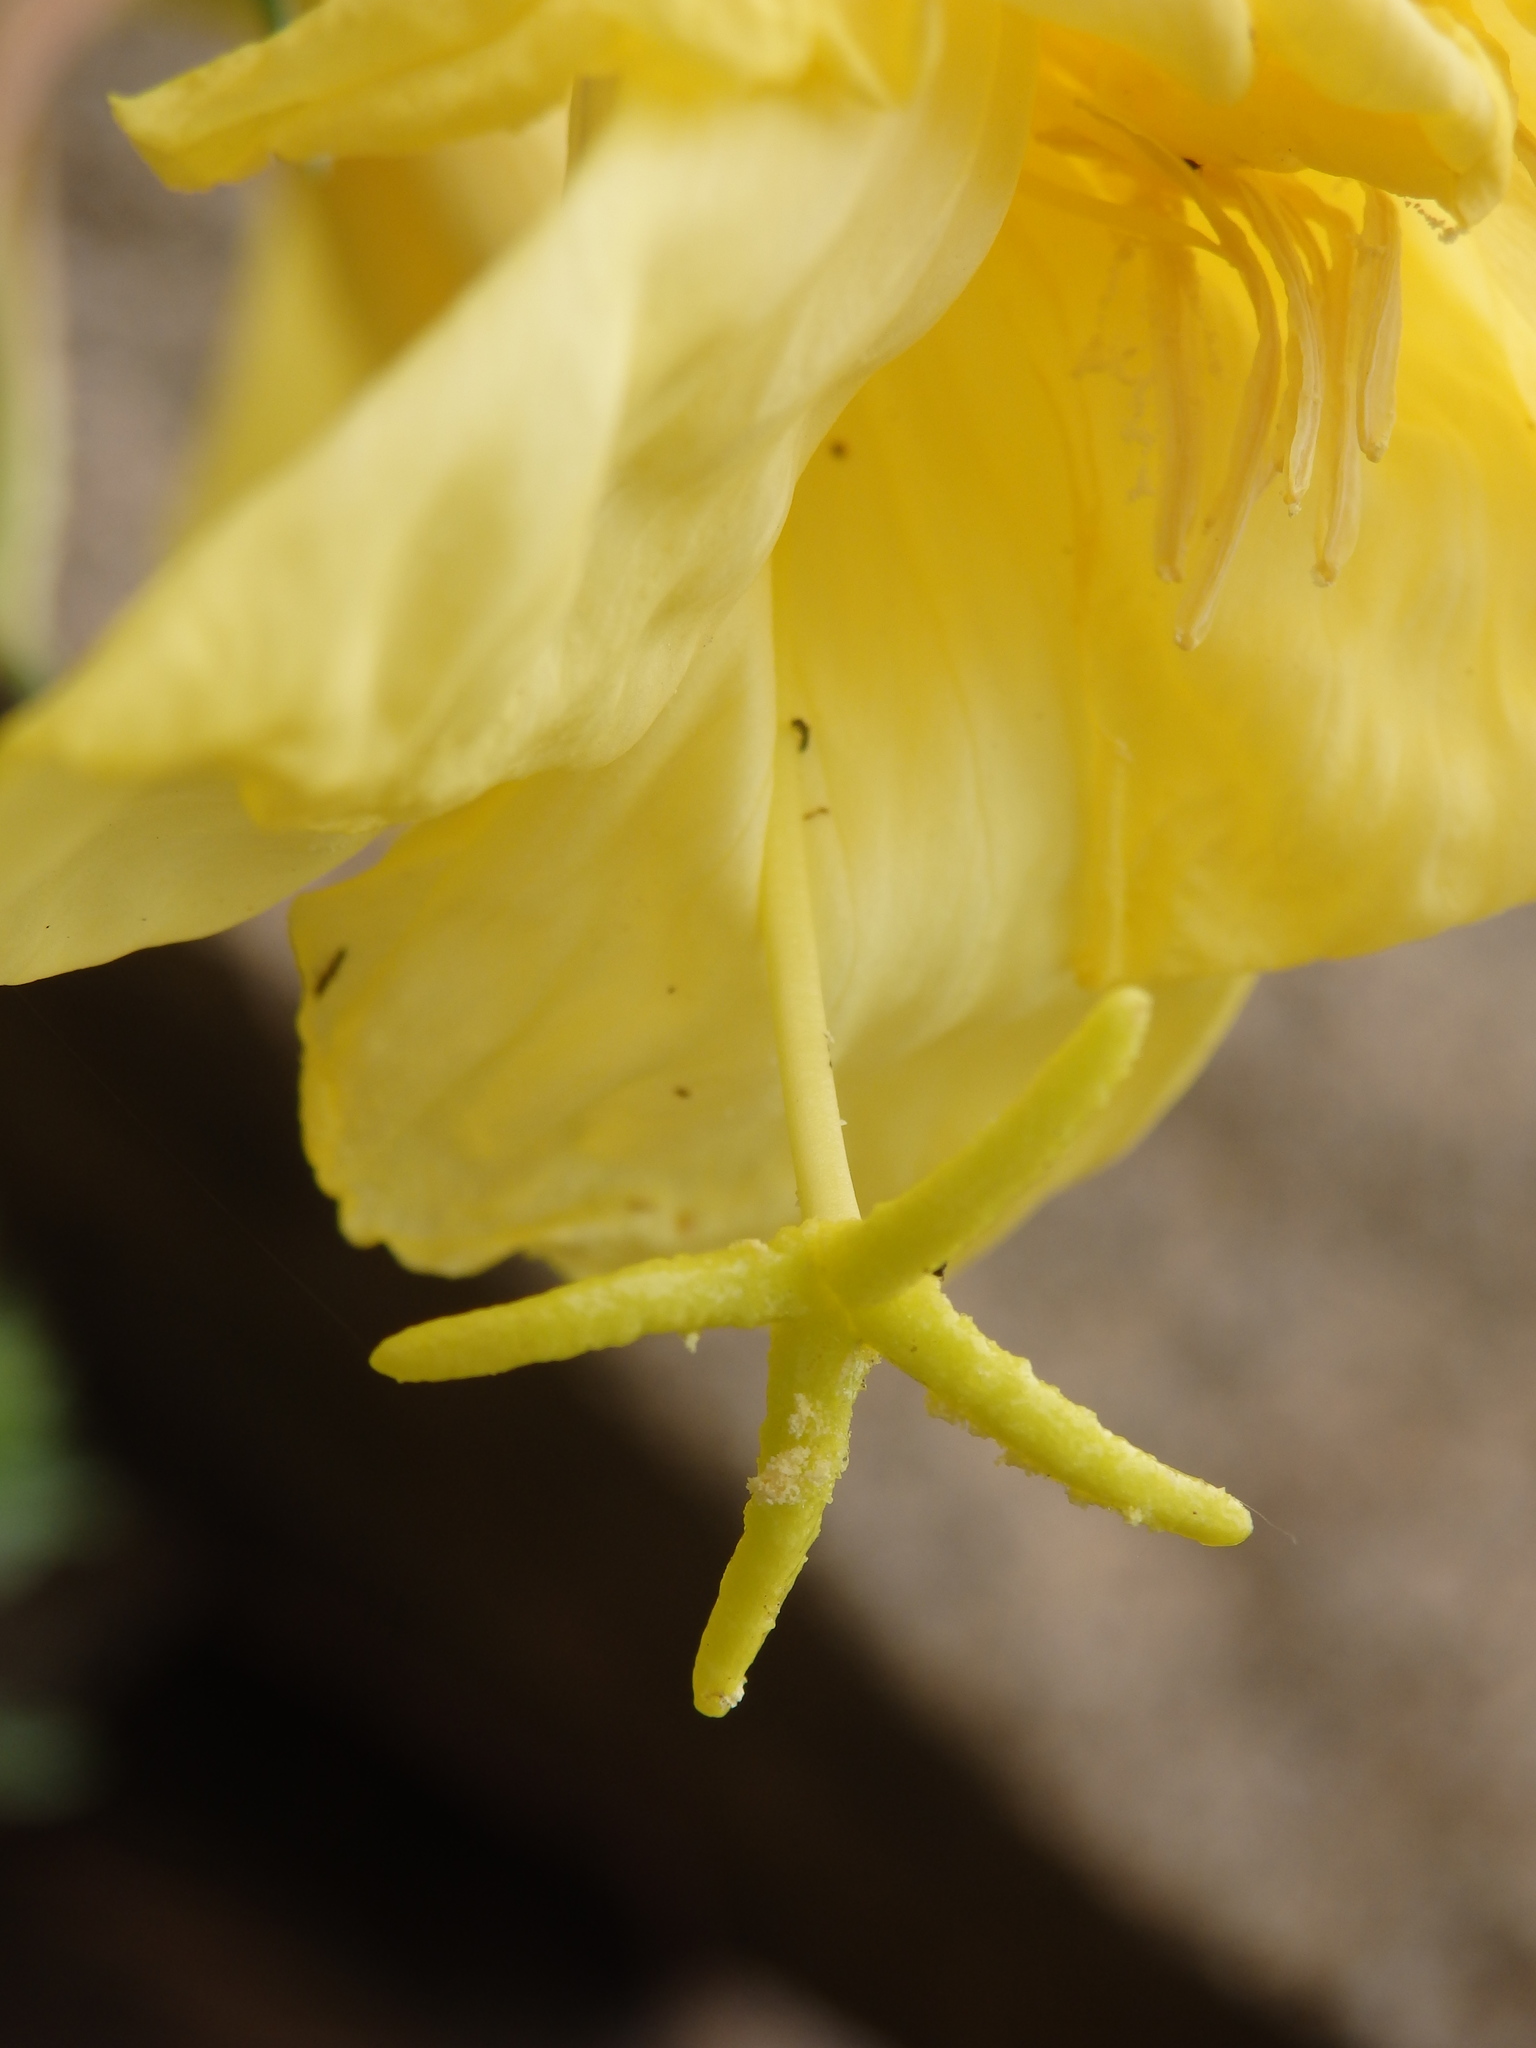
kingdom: Plantae
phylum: Tracheophyta
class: Magnoliopsida
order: Myrtales
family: Onagraceae
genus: Oenothera
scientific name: Oenothera glazioviana
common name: Large-flowered evening-primrose
